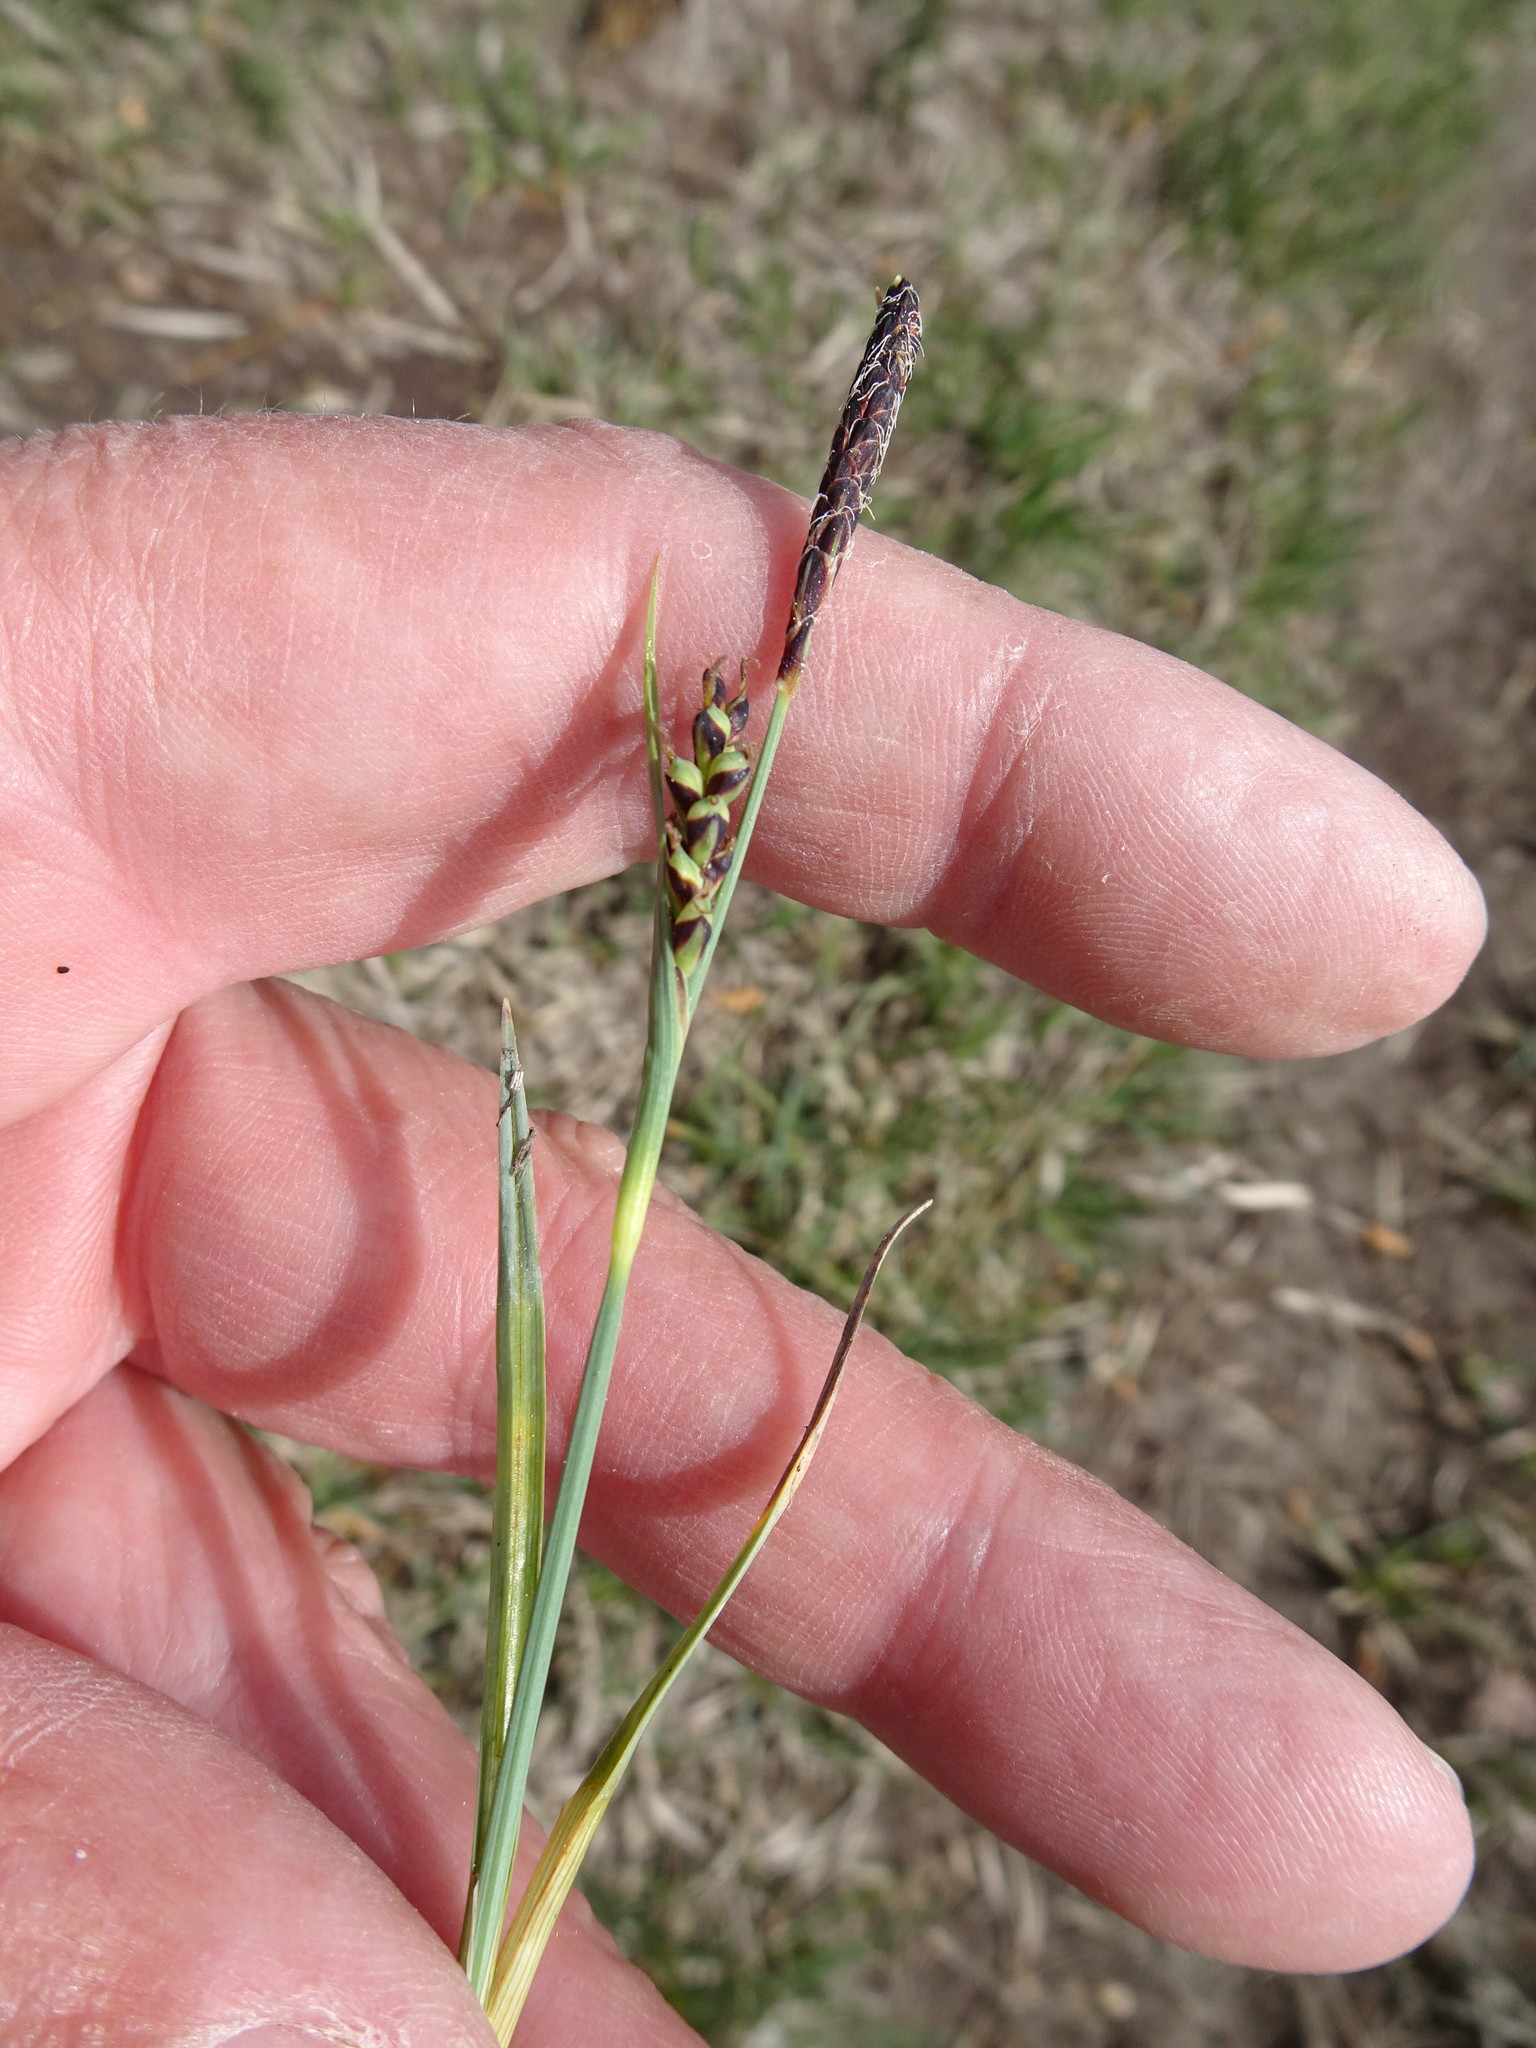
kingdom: Plantae
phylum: Tracheophyta
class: Liliopsida
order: Poales
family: Cyperaceae
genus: Carex
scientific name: Carex panicea
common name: Carnation sedge
